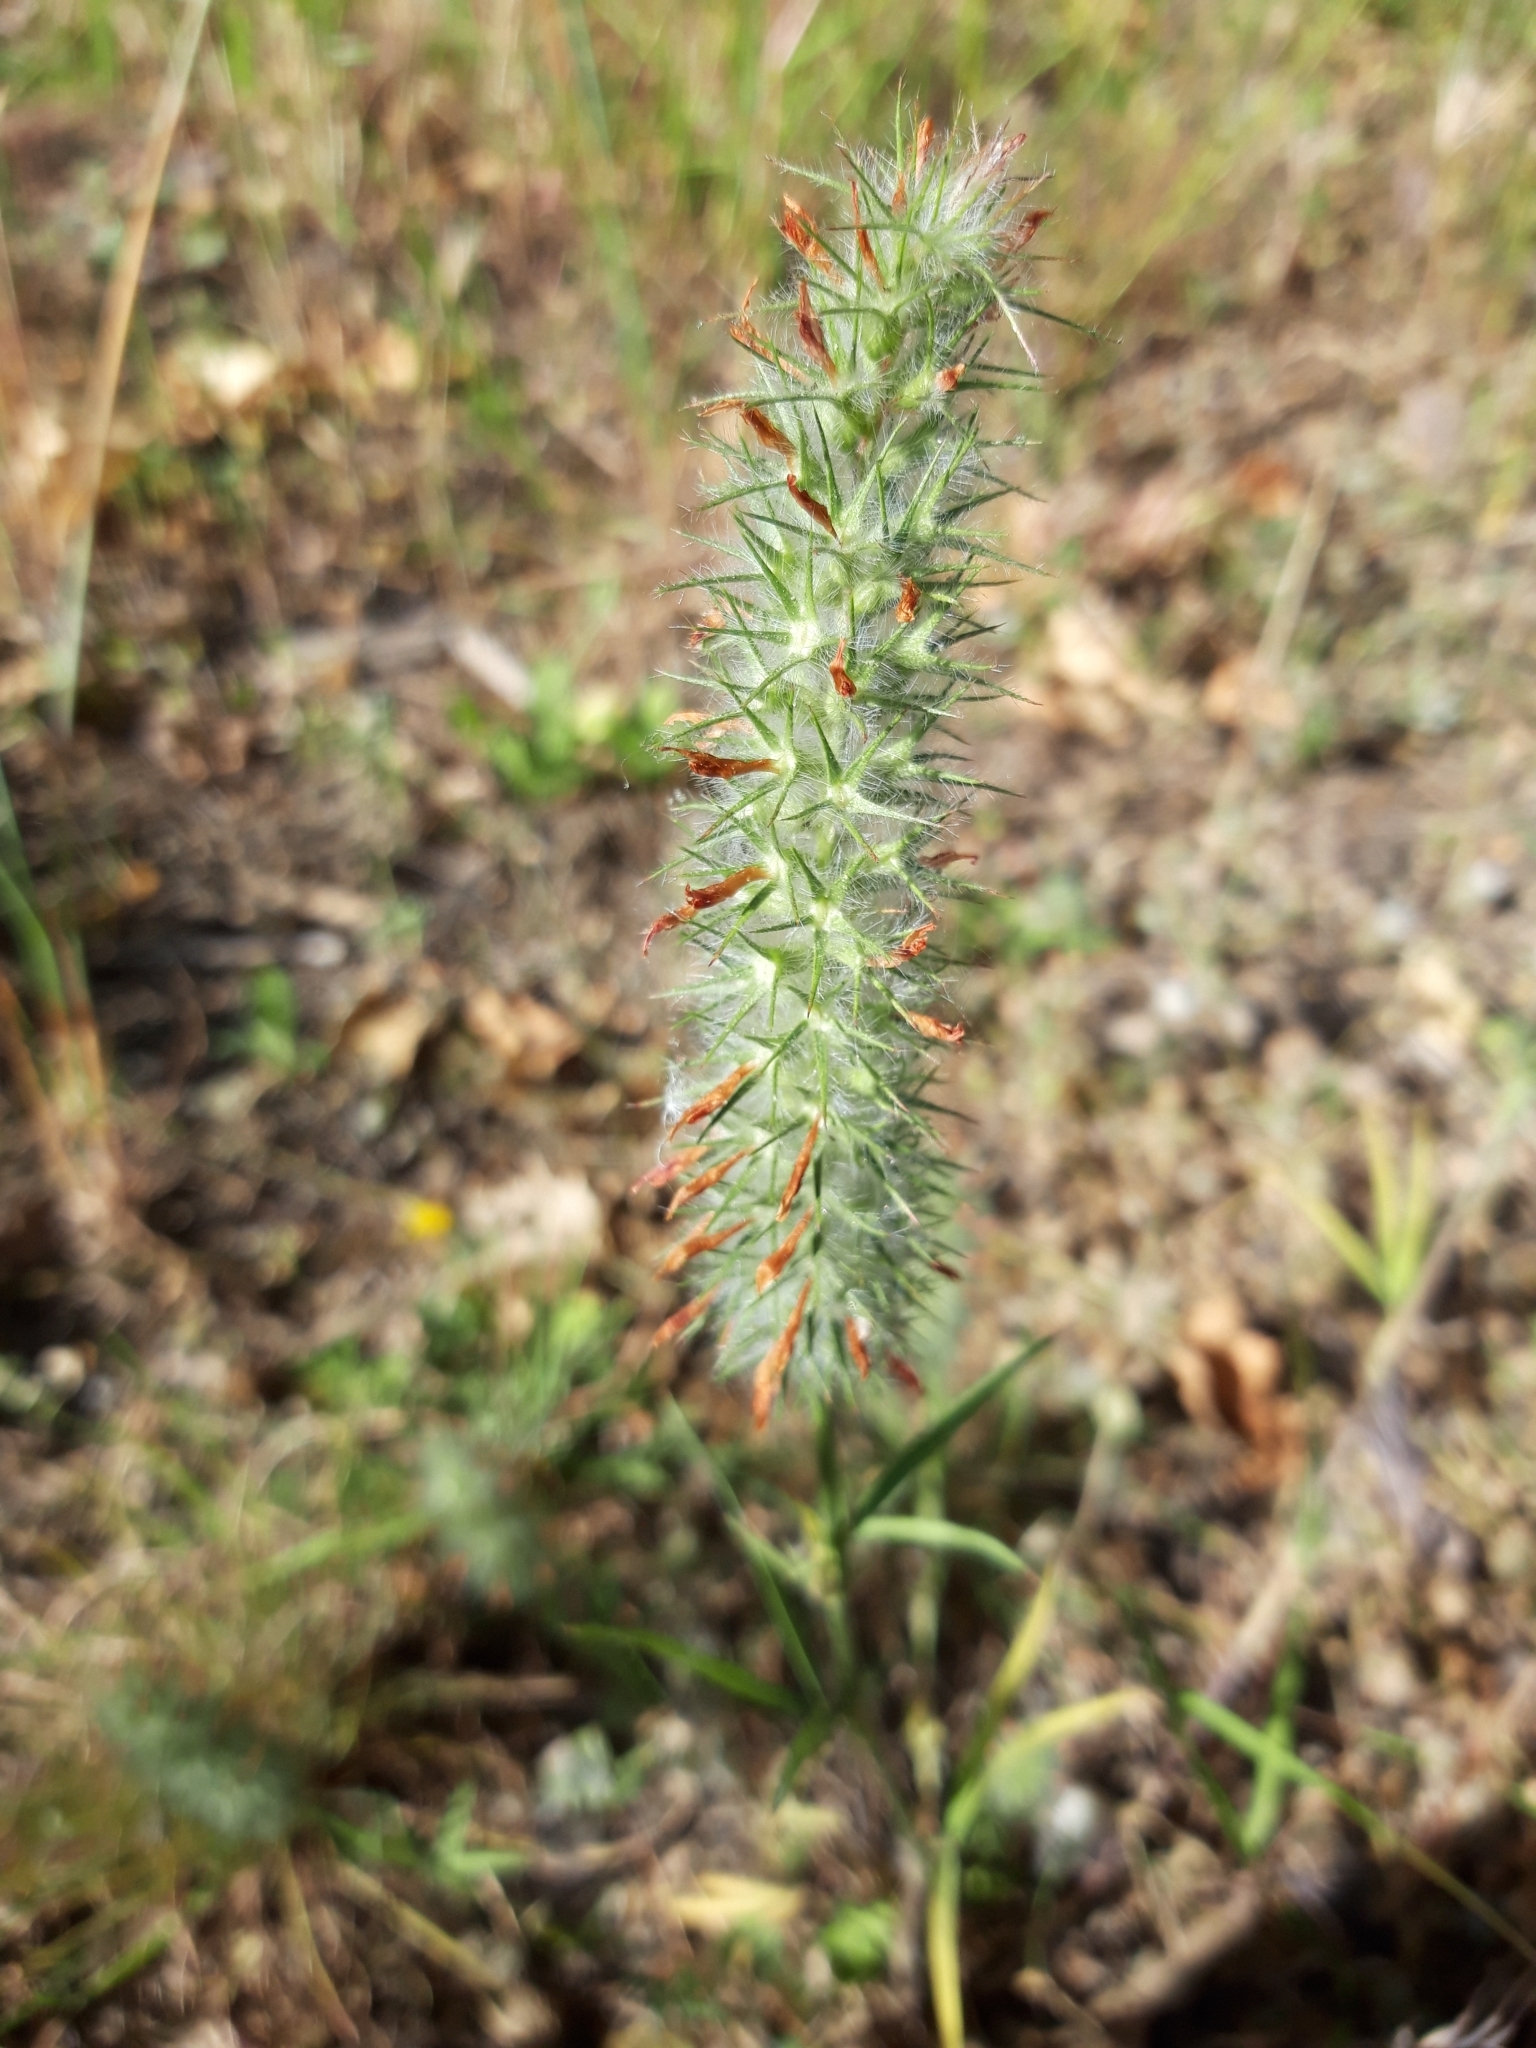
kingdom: Plantae
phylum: Tracheophyta
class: Magnoliopsida
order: Fabales
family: Fabaceae
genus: Trifolium
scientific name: Trifolium angustifolium
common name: Narrow clover
